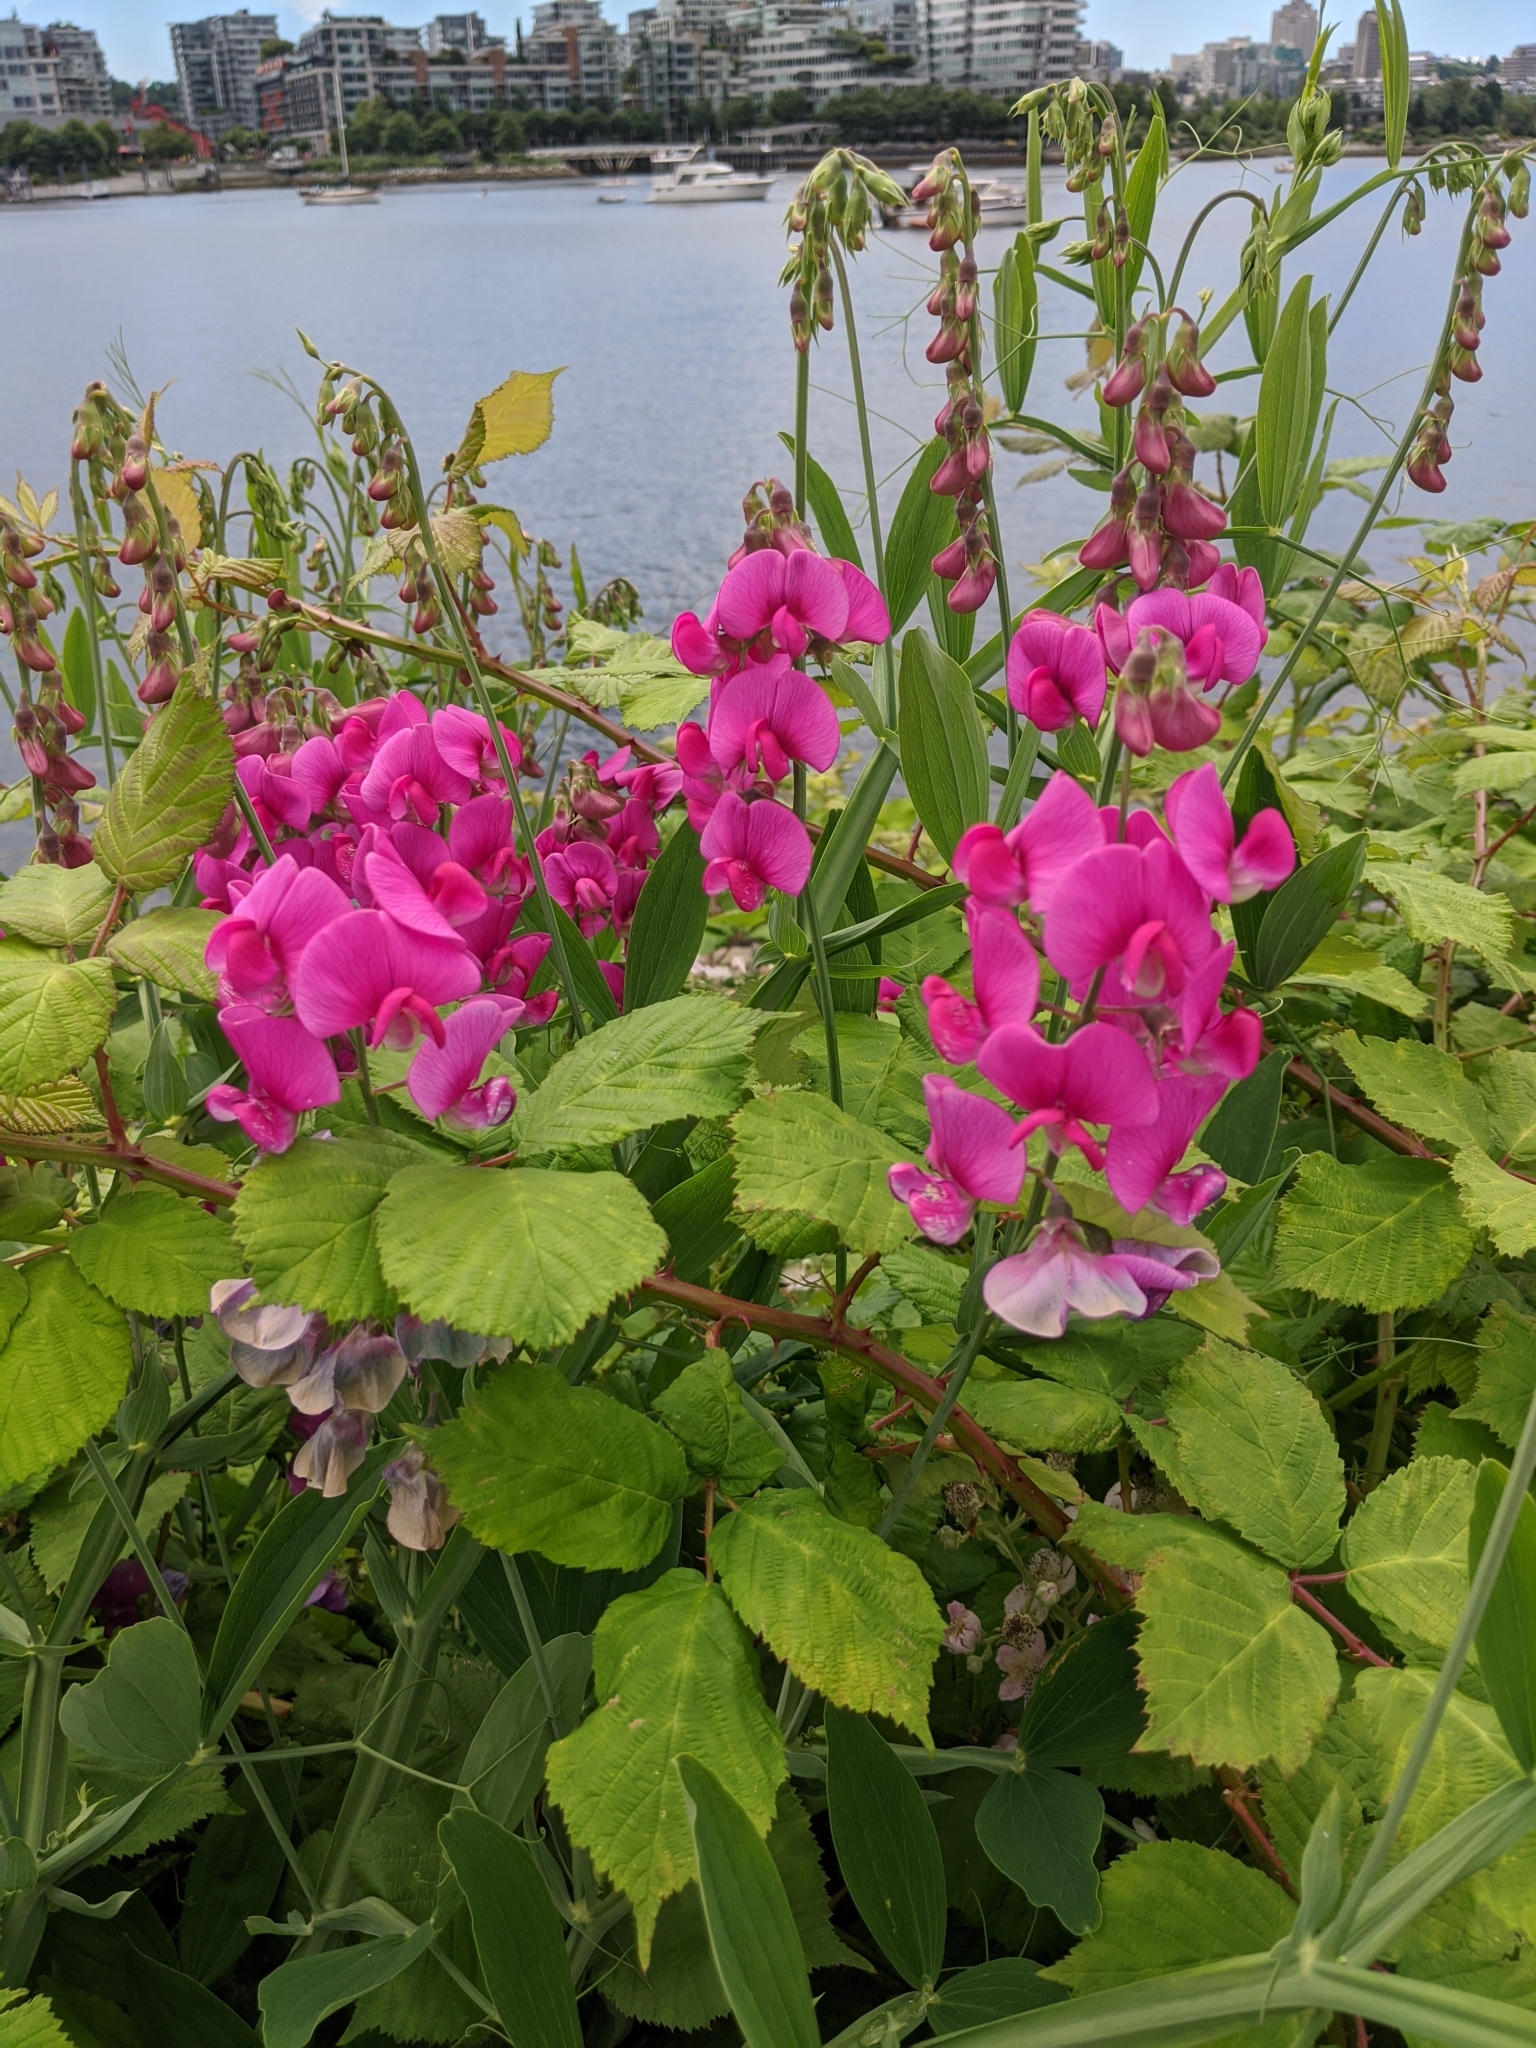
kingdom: Plantae
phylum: Tracheophyta
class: Magnoliopsida
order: Fabales
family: Fabaceae
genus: Lathyrus
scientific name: Lathyrus latifolius
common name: Perennial pea
